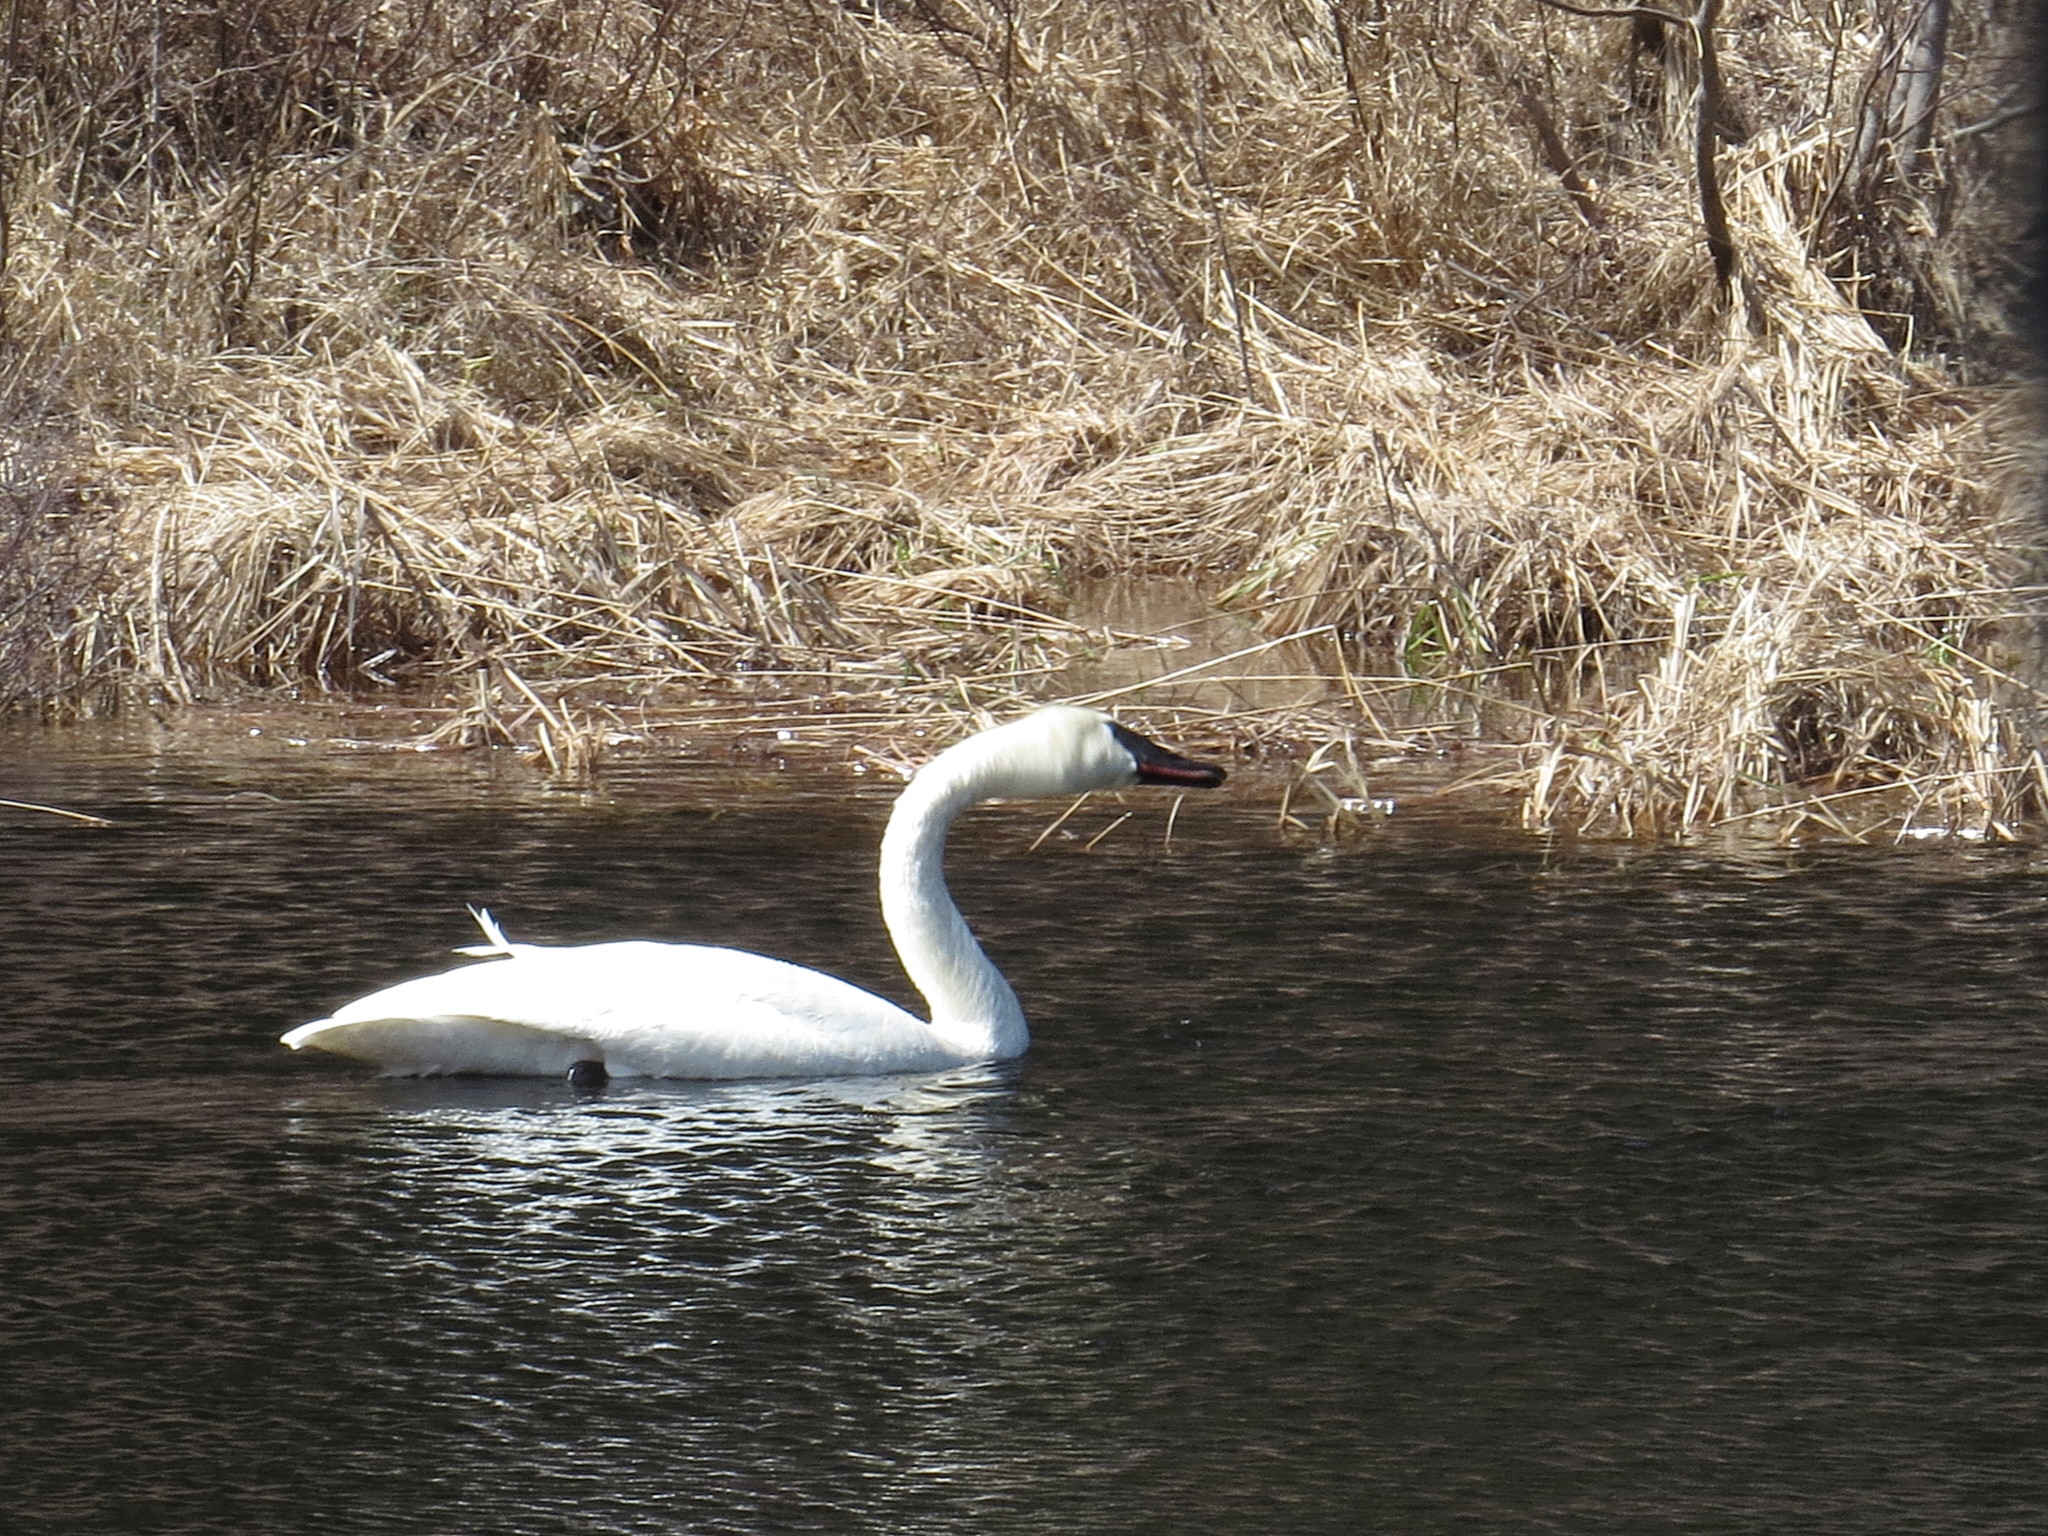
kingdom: Animalia
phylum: Chordata
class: Aves
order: Anseriformes
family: Anatidae
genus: Cygnus
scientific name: Cygnus buccinator
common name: Trumpeter swan
